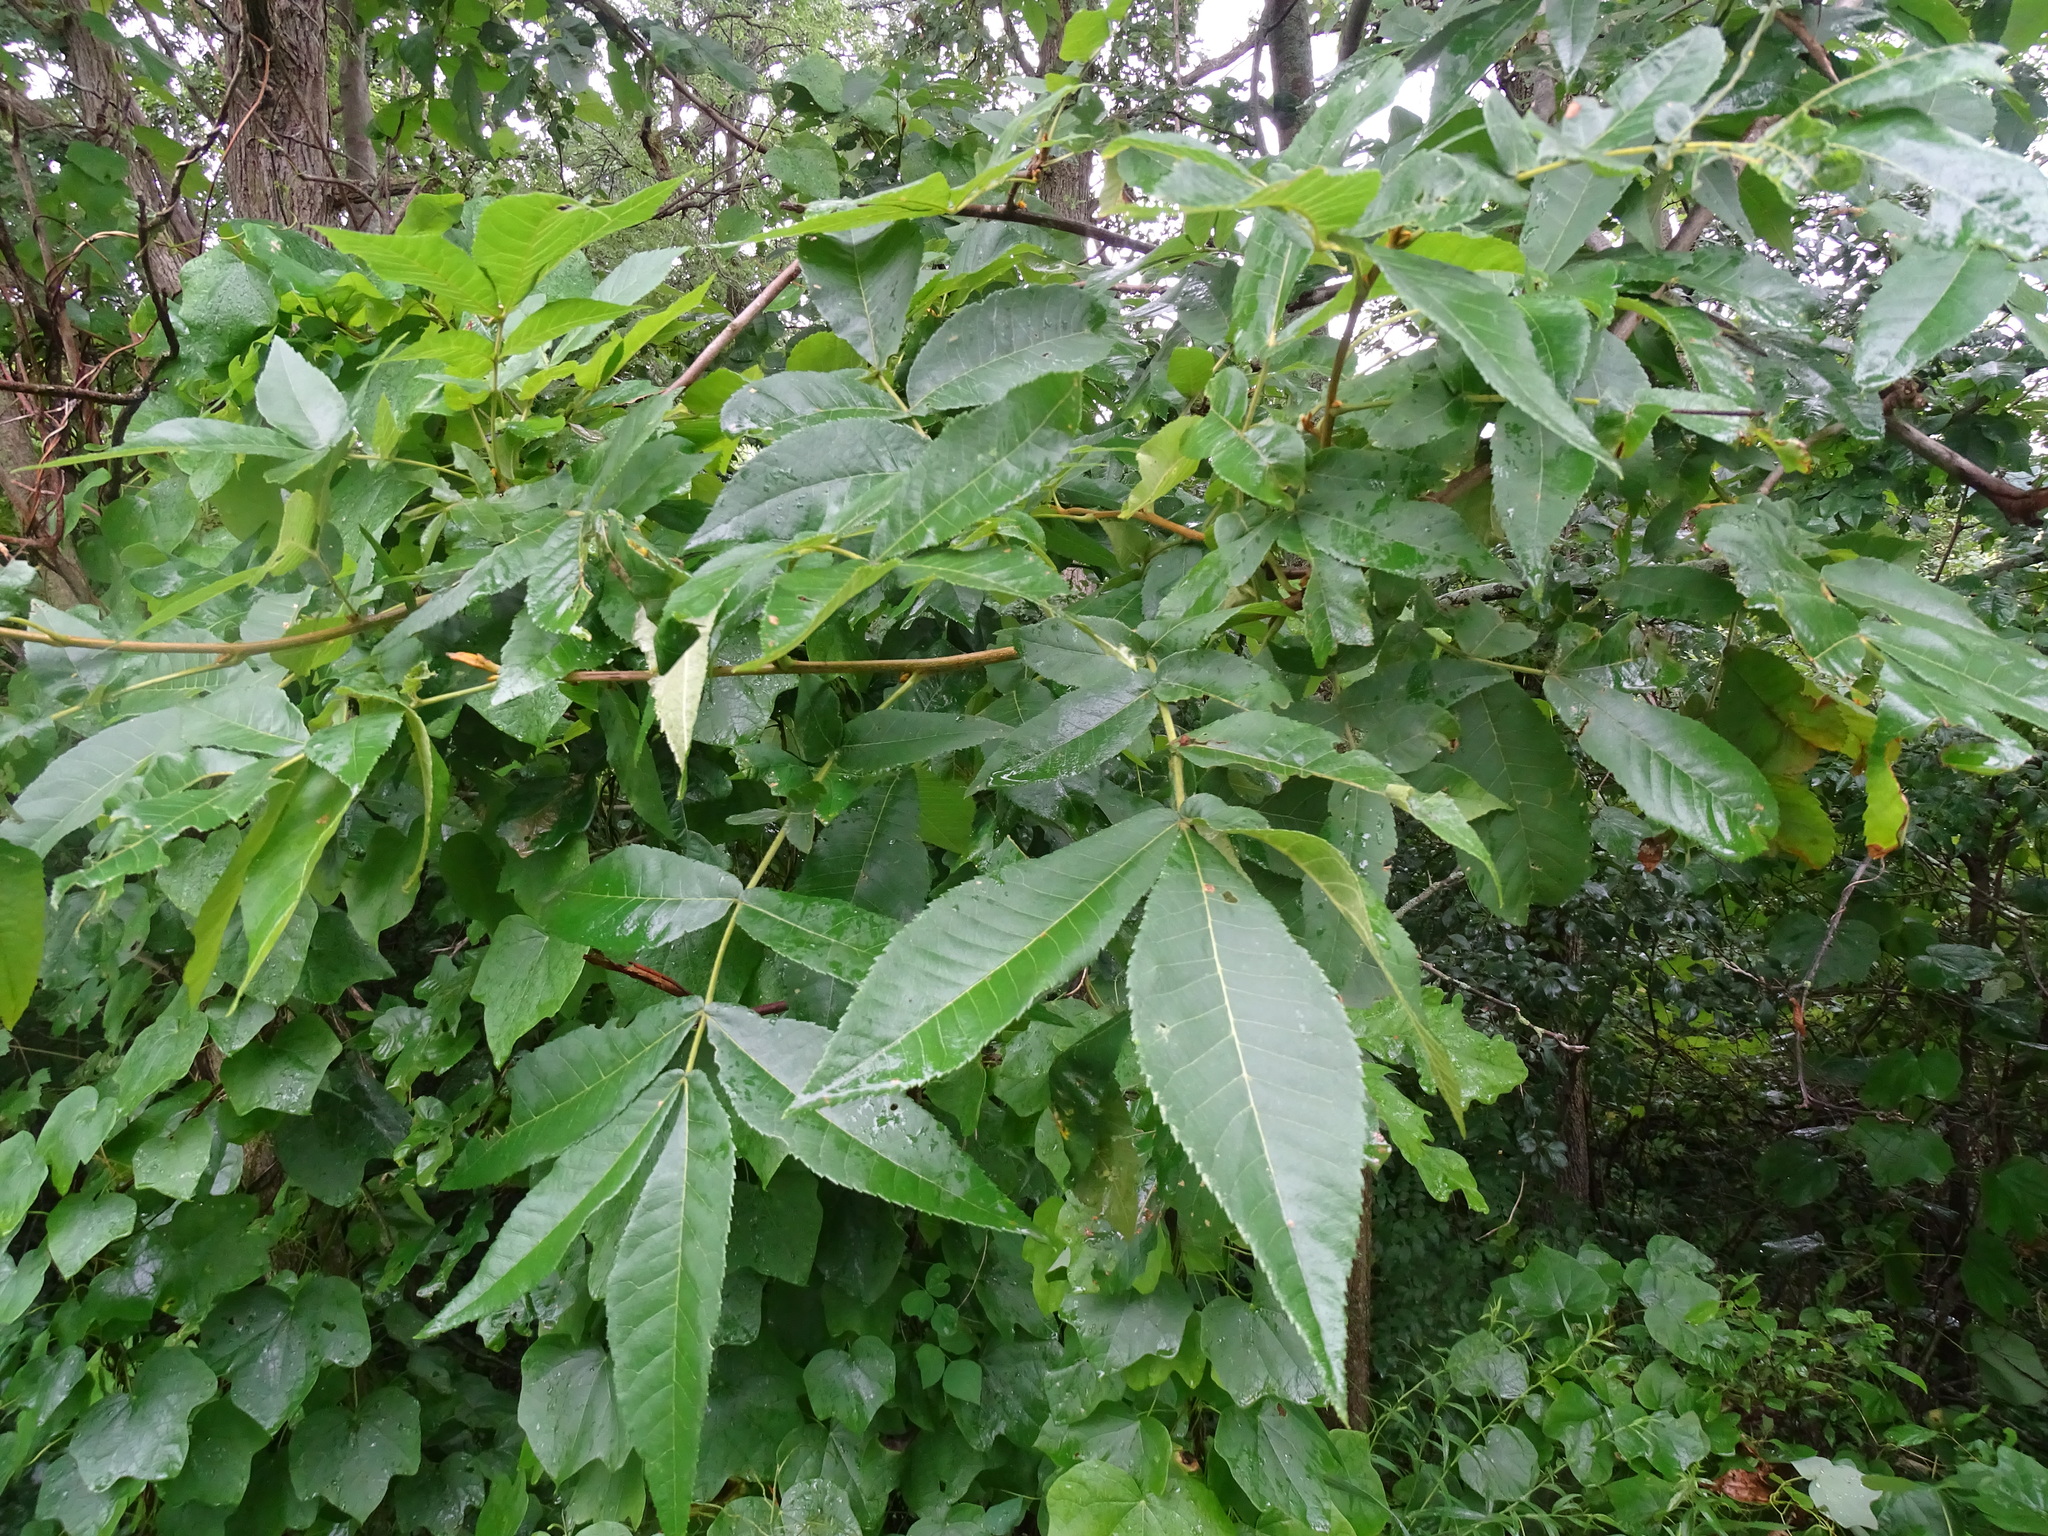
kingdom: Plantae
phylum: Tracheophyta
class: Magnoliopsida
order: Fagales
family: Juglandaceae
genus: Carya
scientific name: Carya cordiformis
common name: Bitternut hickory
